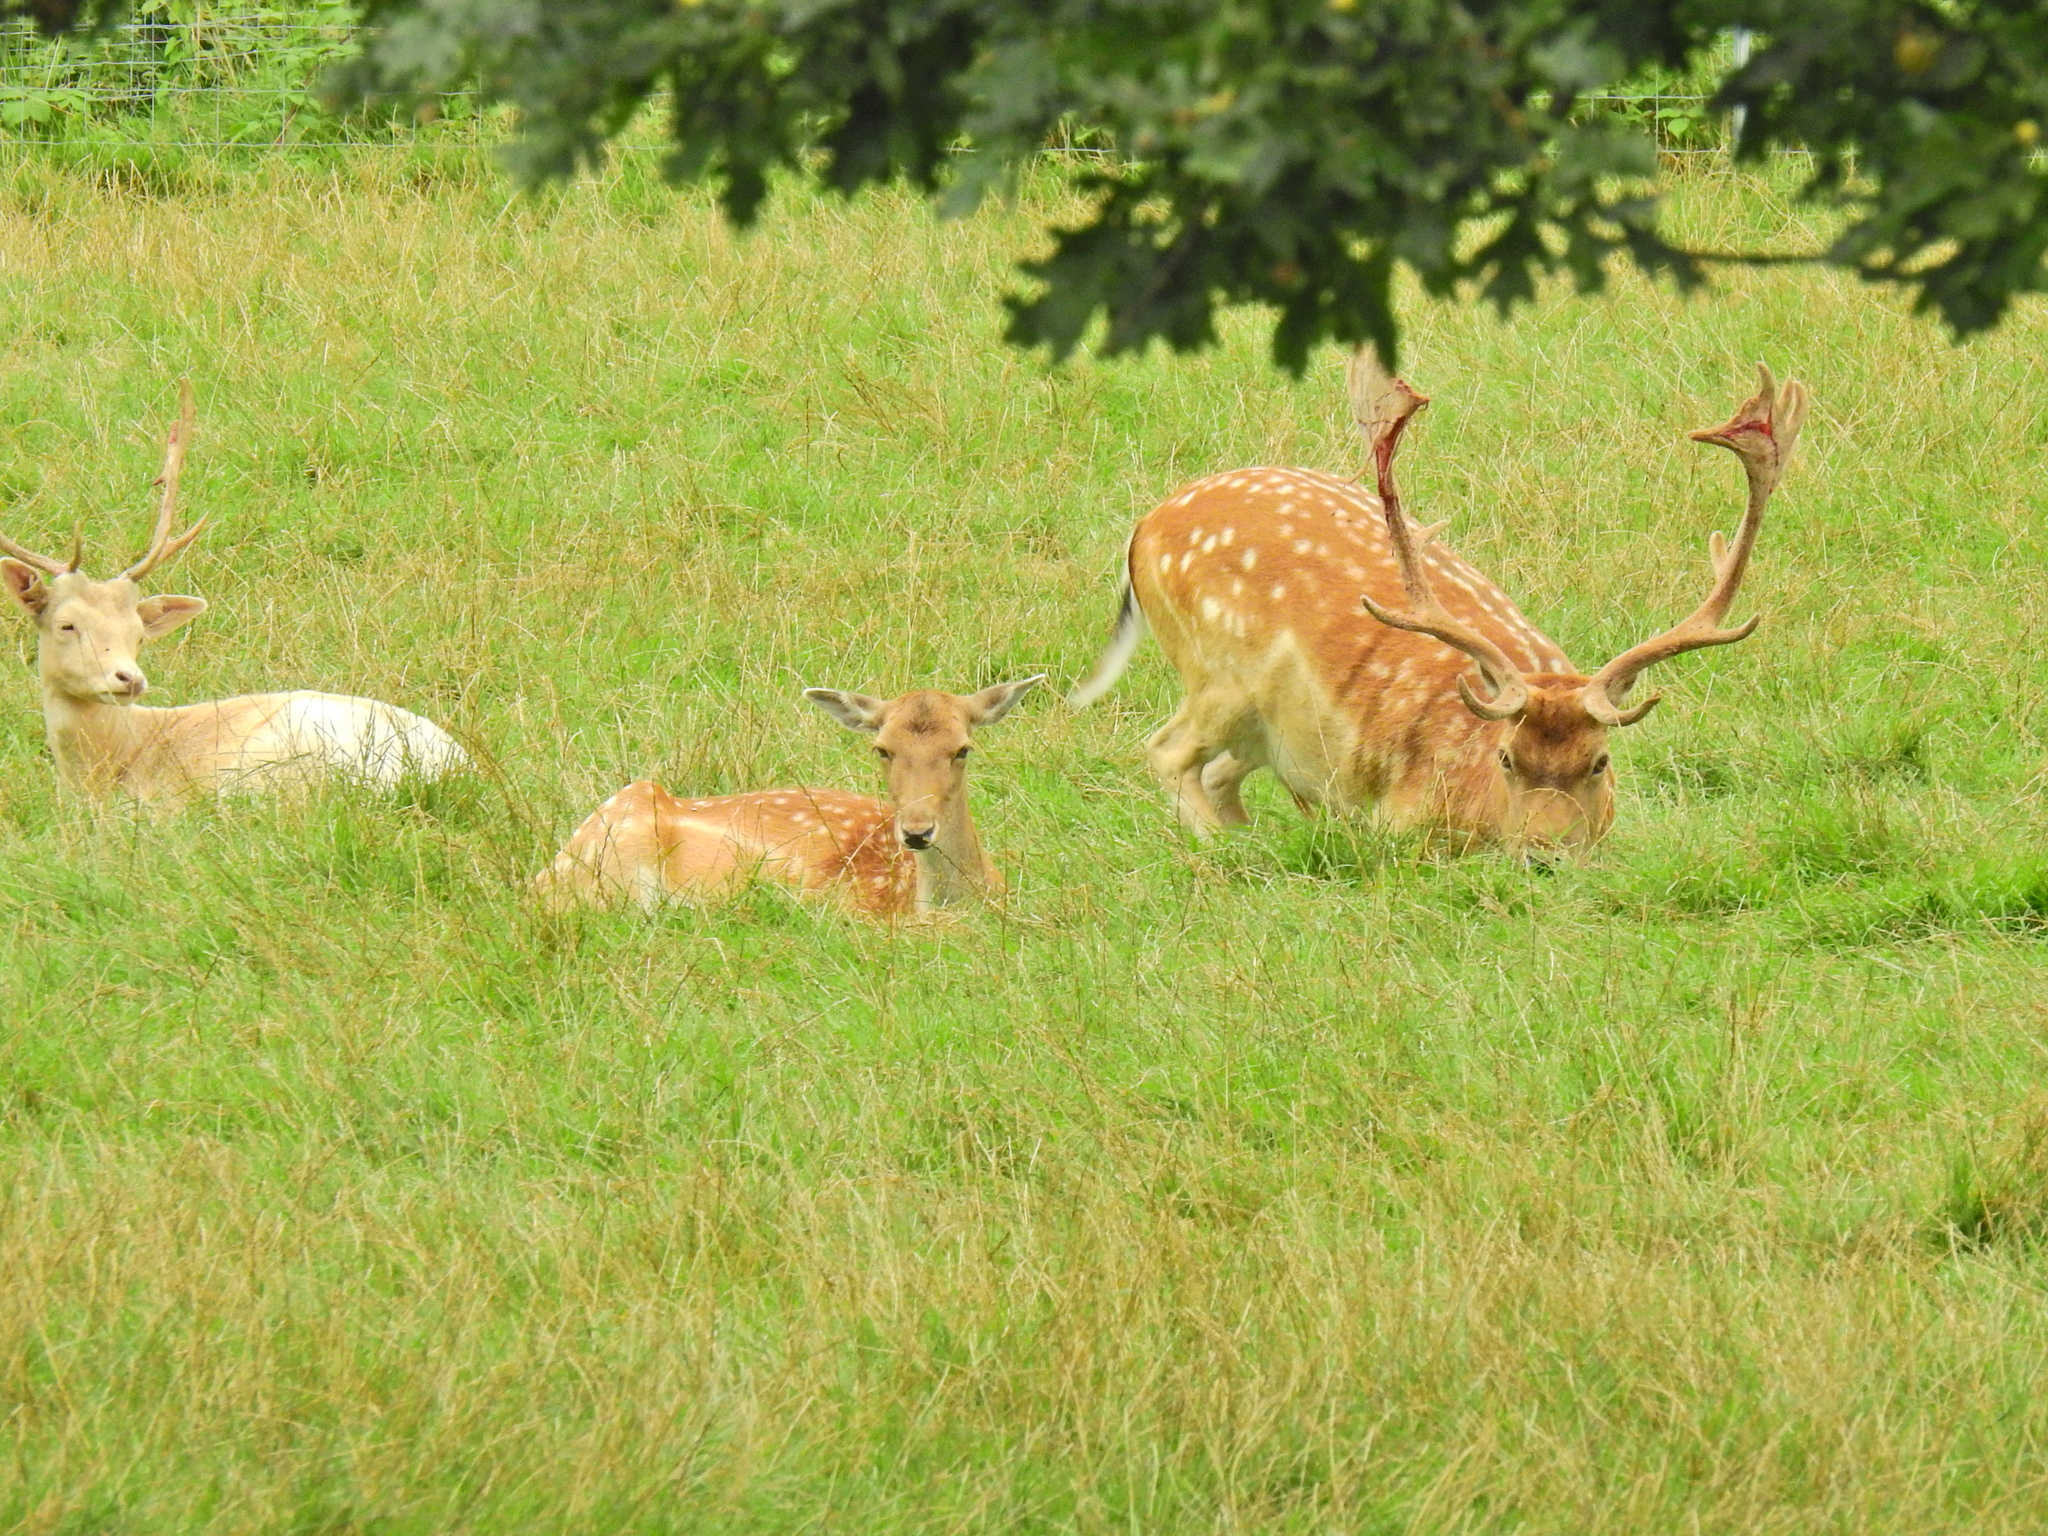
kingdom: Animalia
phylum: Chordata
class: Mammalia
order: Artiodactyla
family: Cervidae
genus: Dama
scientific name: Dama dama
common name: Fallow deer
